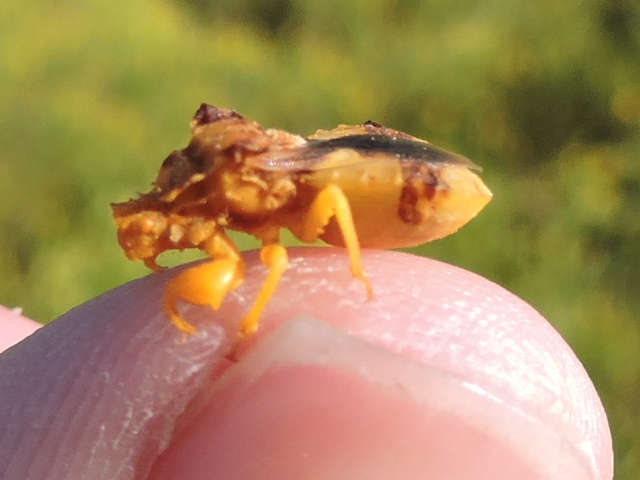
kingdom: Animalia
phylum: Arthropoda
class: Insecta
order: Hemiptera
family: Reduviidae
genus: Phymata
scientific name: Phymata americana
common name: Jagged ambush bug
